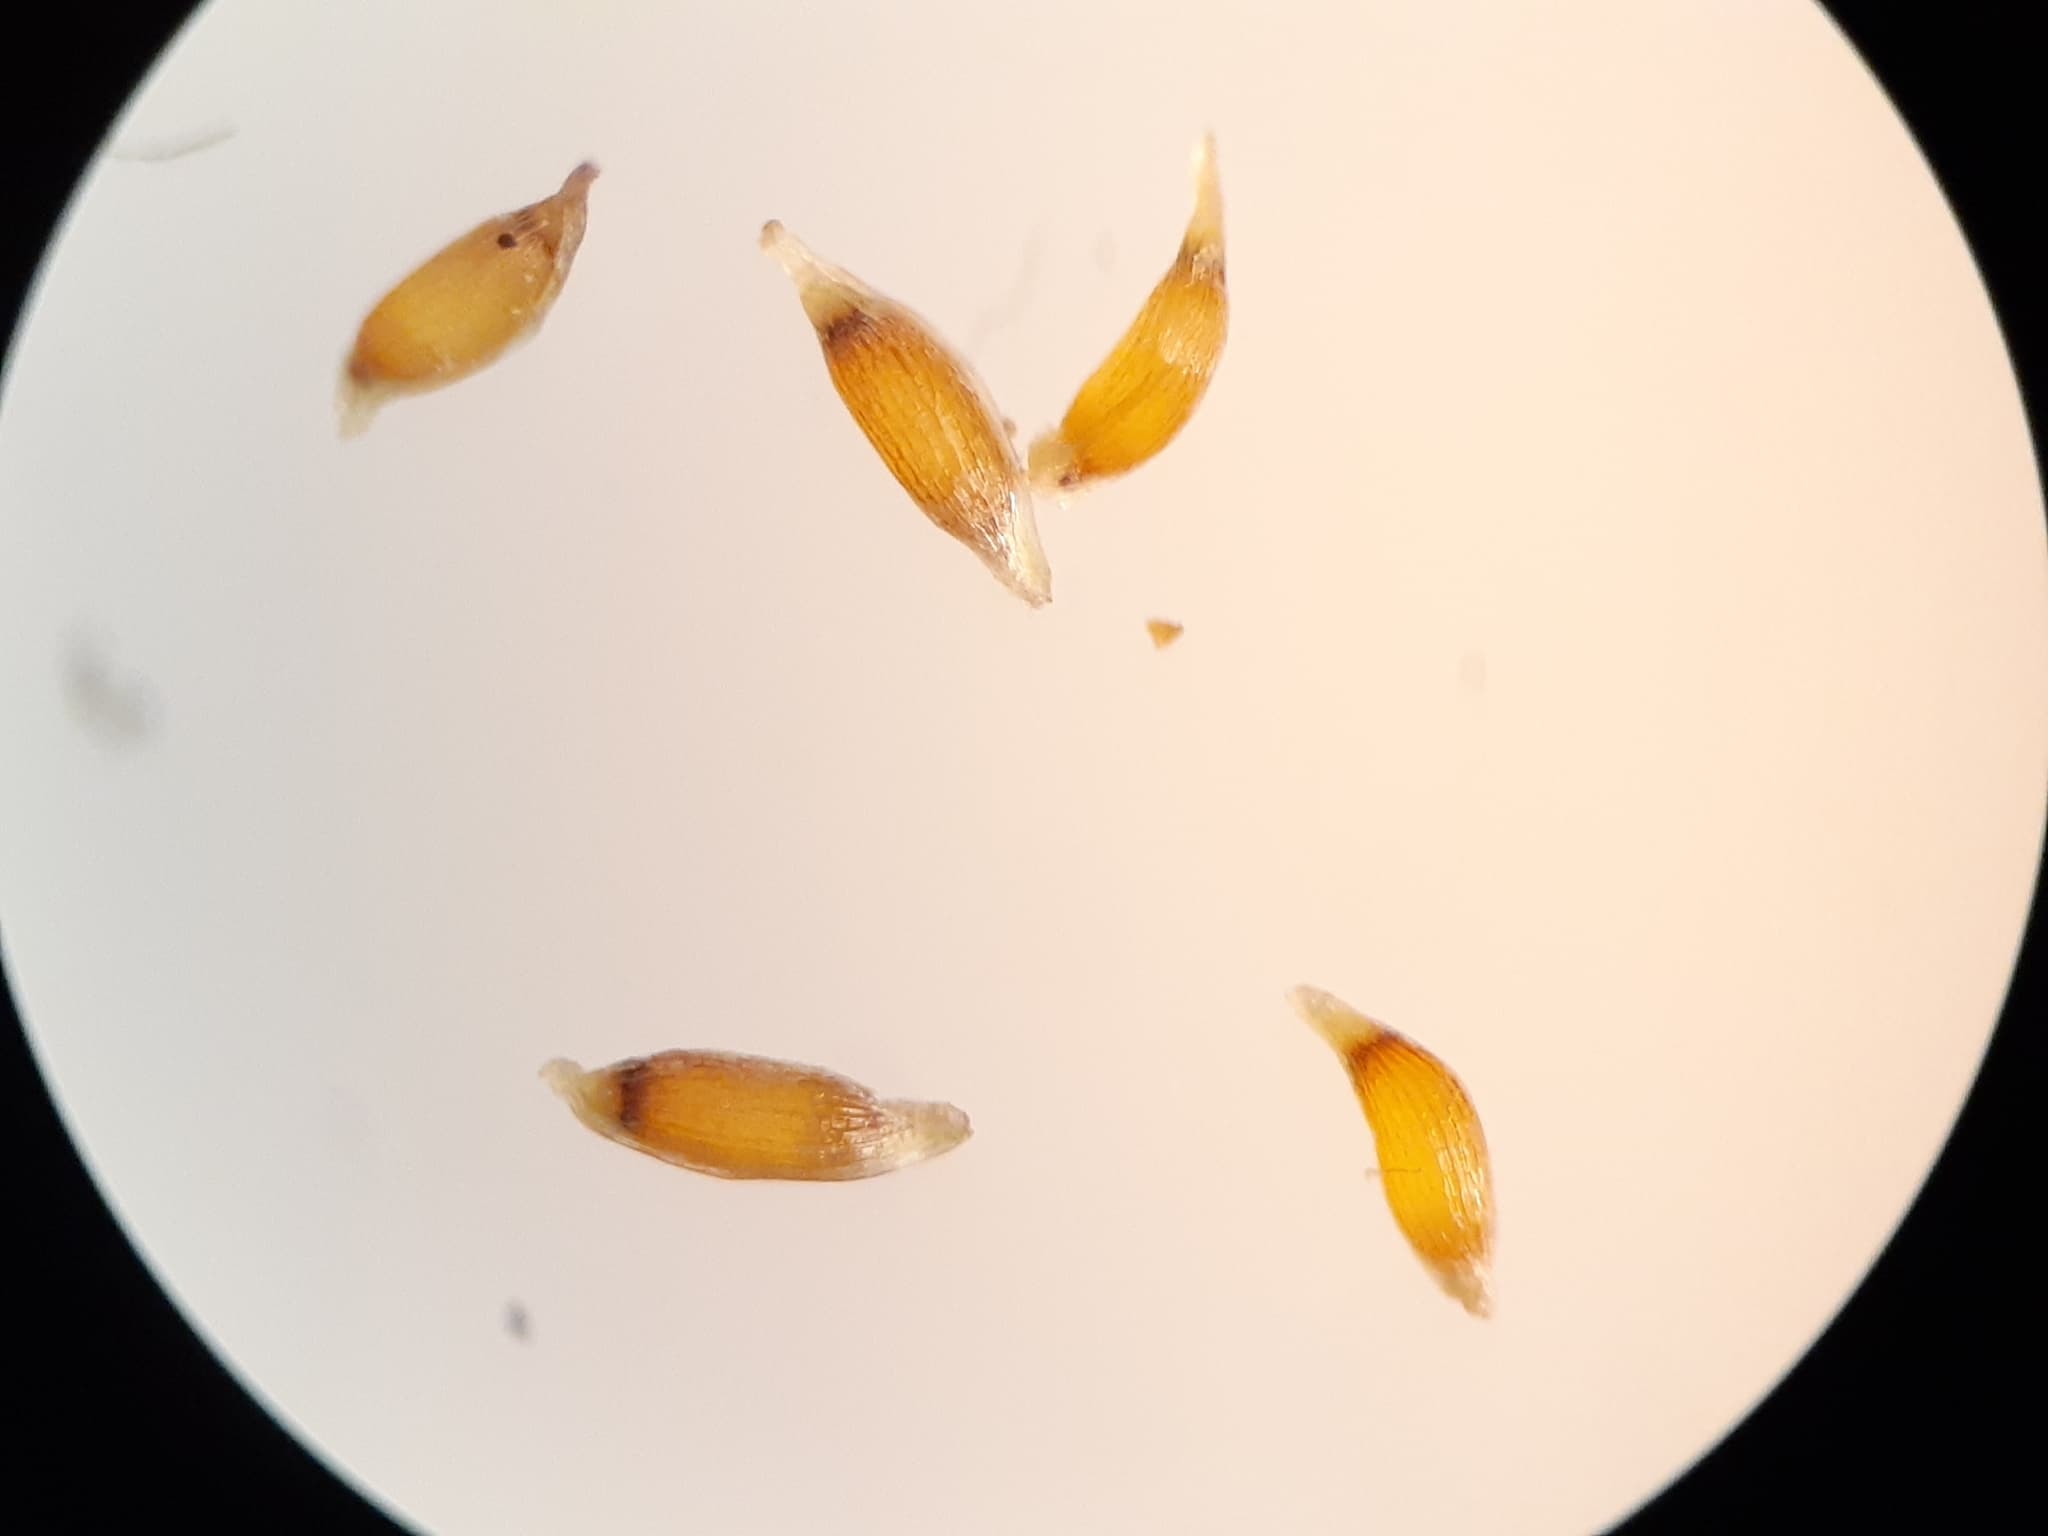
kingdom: Plantae
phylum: Tracheophyta
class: Liliopsida
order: Poales
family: Juncaceae
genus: Juncus
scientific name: Juncus tweedyi
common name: Narrow-panicled rush
